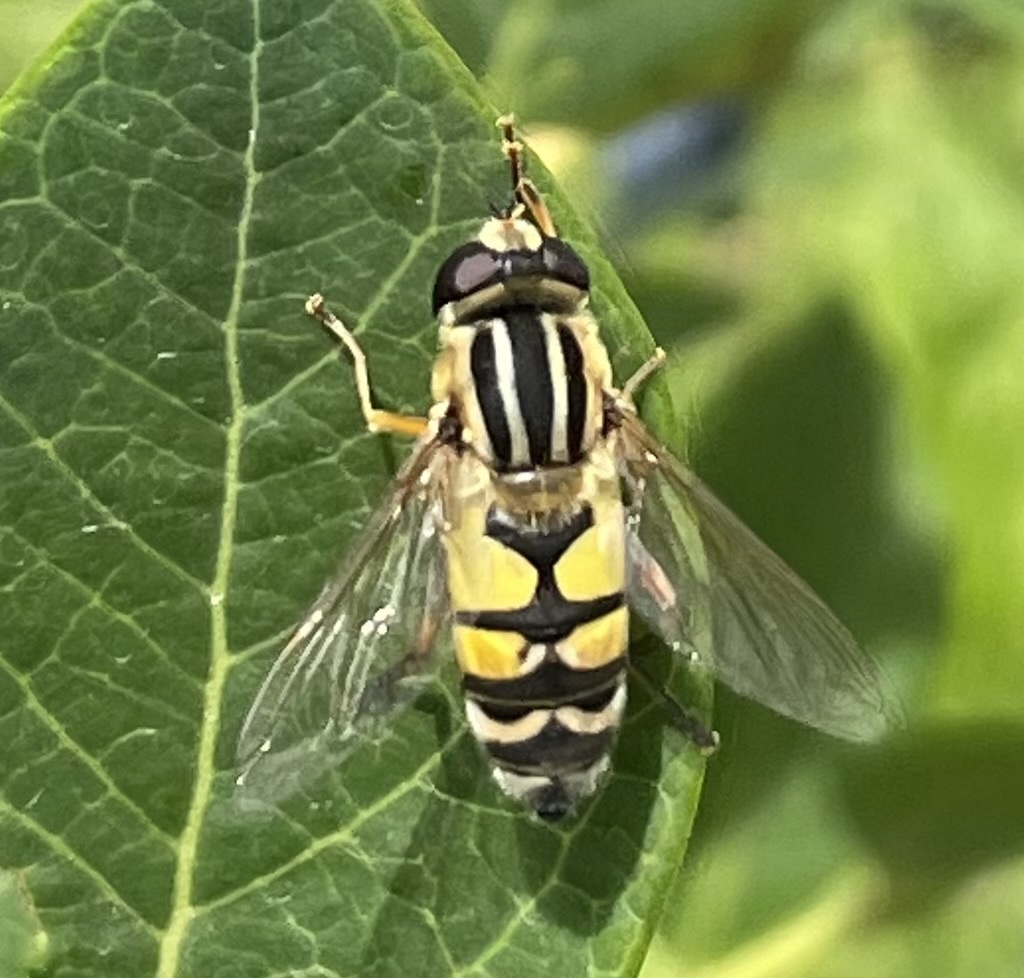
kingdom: Animalia
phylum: Arthropoda
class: Insecta
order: Diptera
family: Syrphidae
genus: Helophilus
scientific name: Helophilus trivittatus
